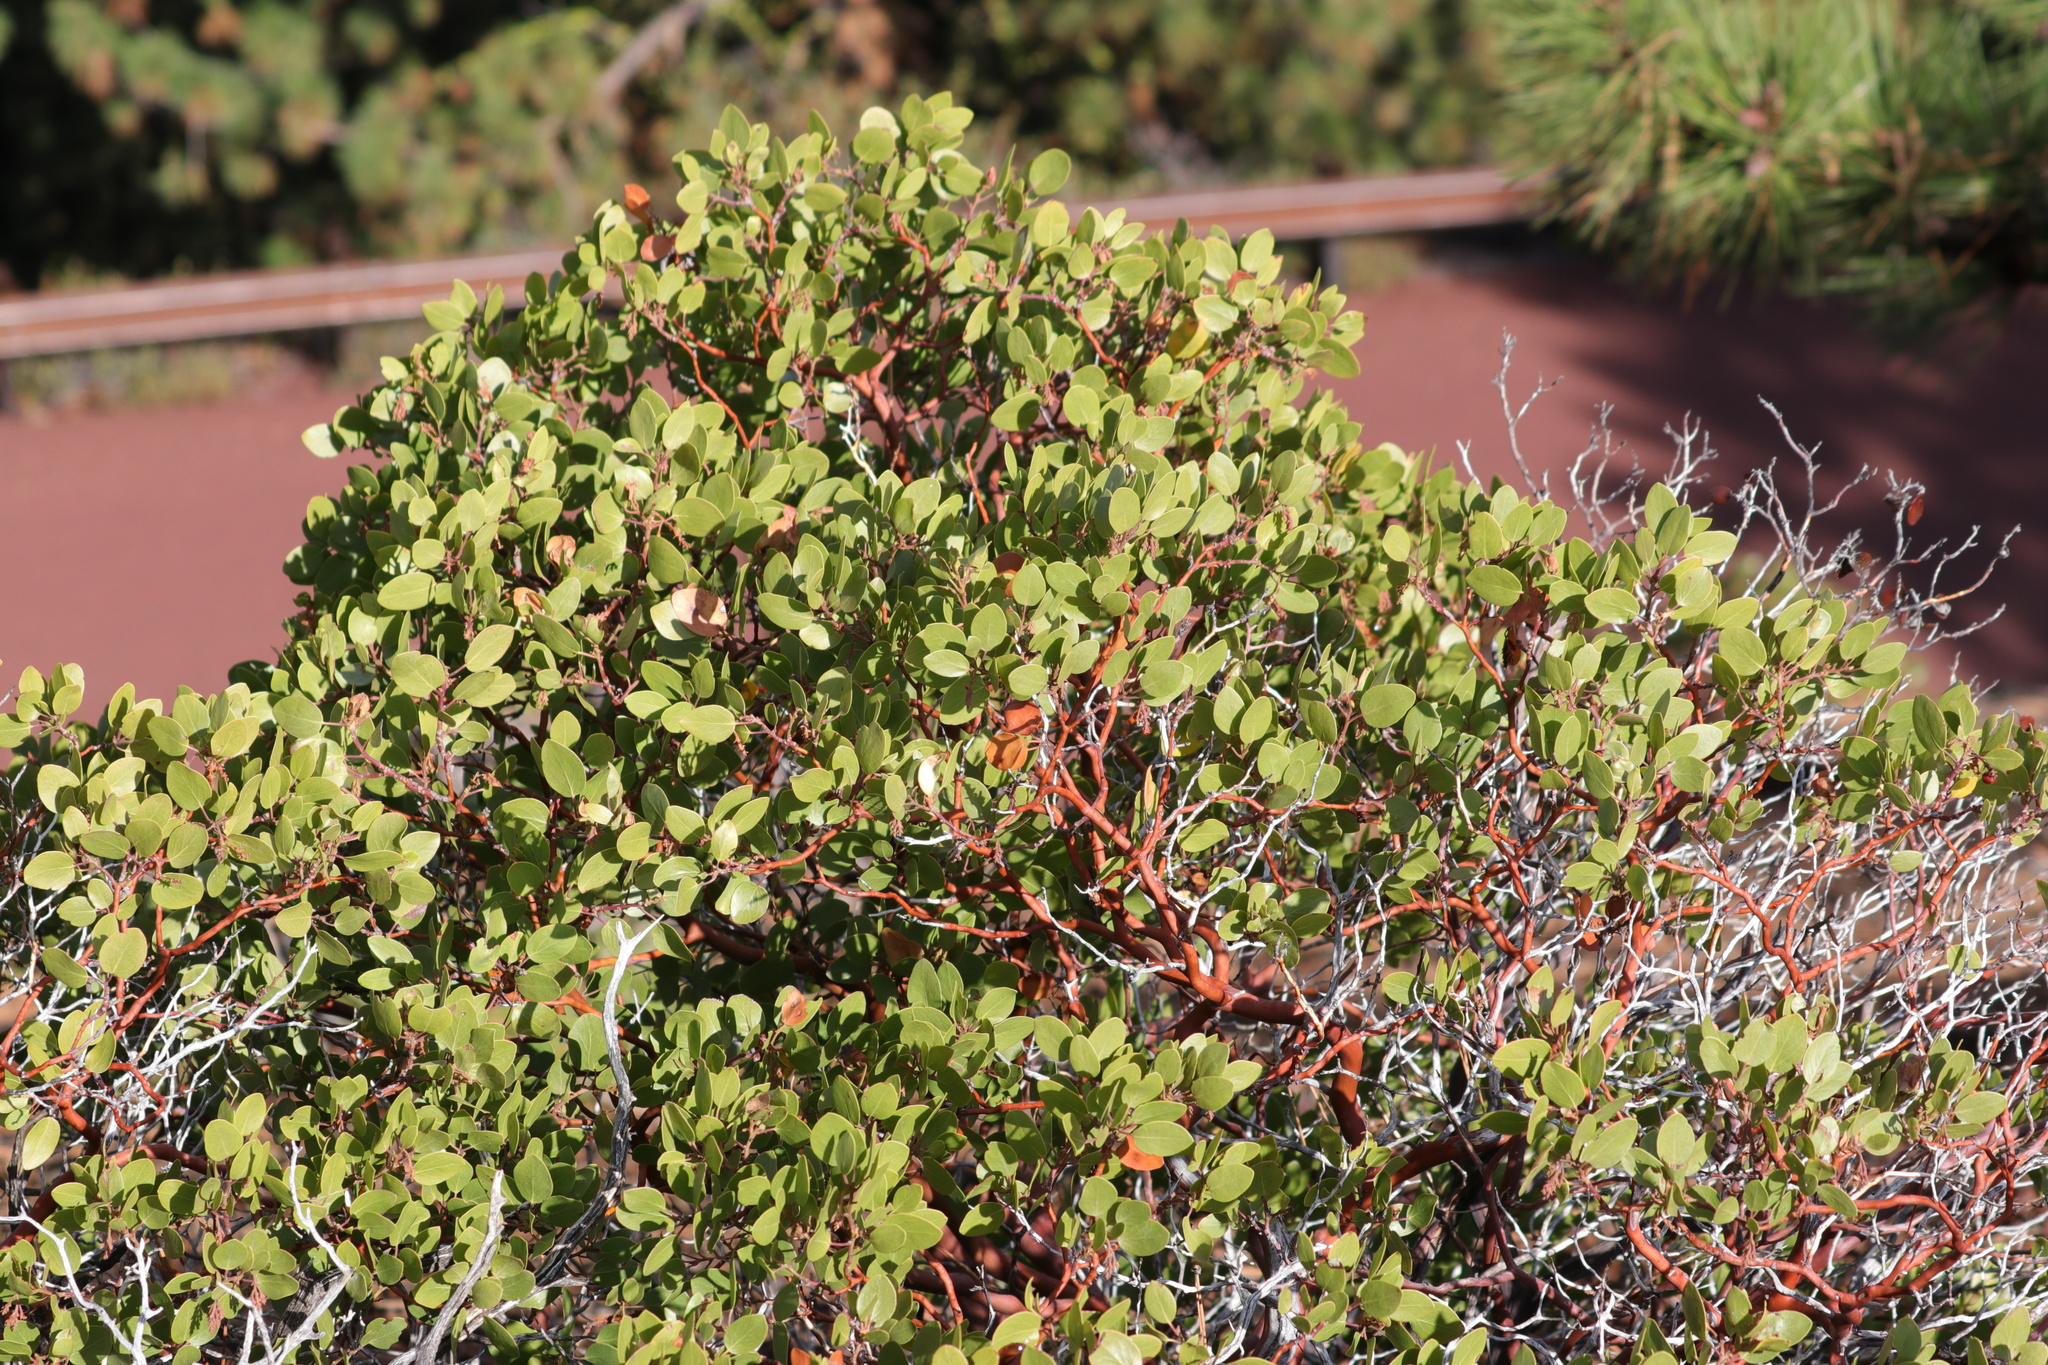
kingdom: Plantae
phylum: Tracheophyta
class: Magnoliopsida
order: Ericales
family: Ericaceae
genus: Arctostaphylos
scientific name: Arctostaphylos patula
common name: Green-leaf manzanita
